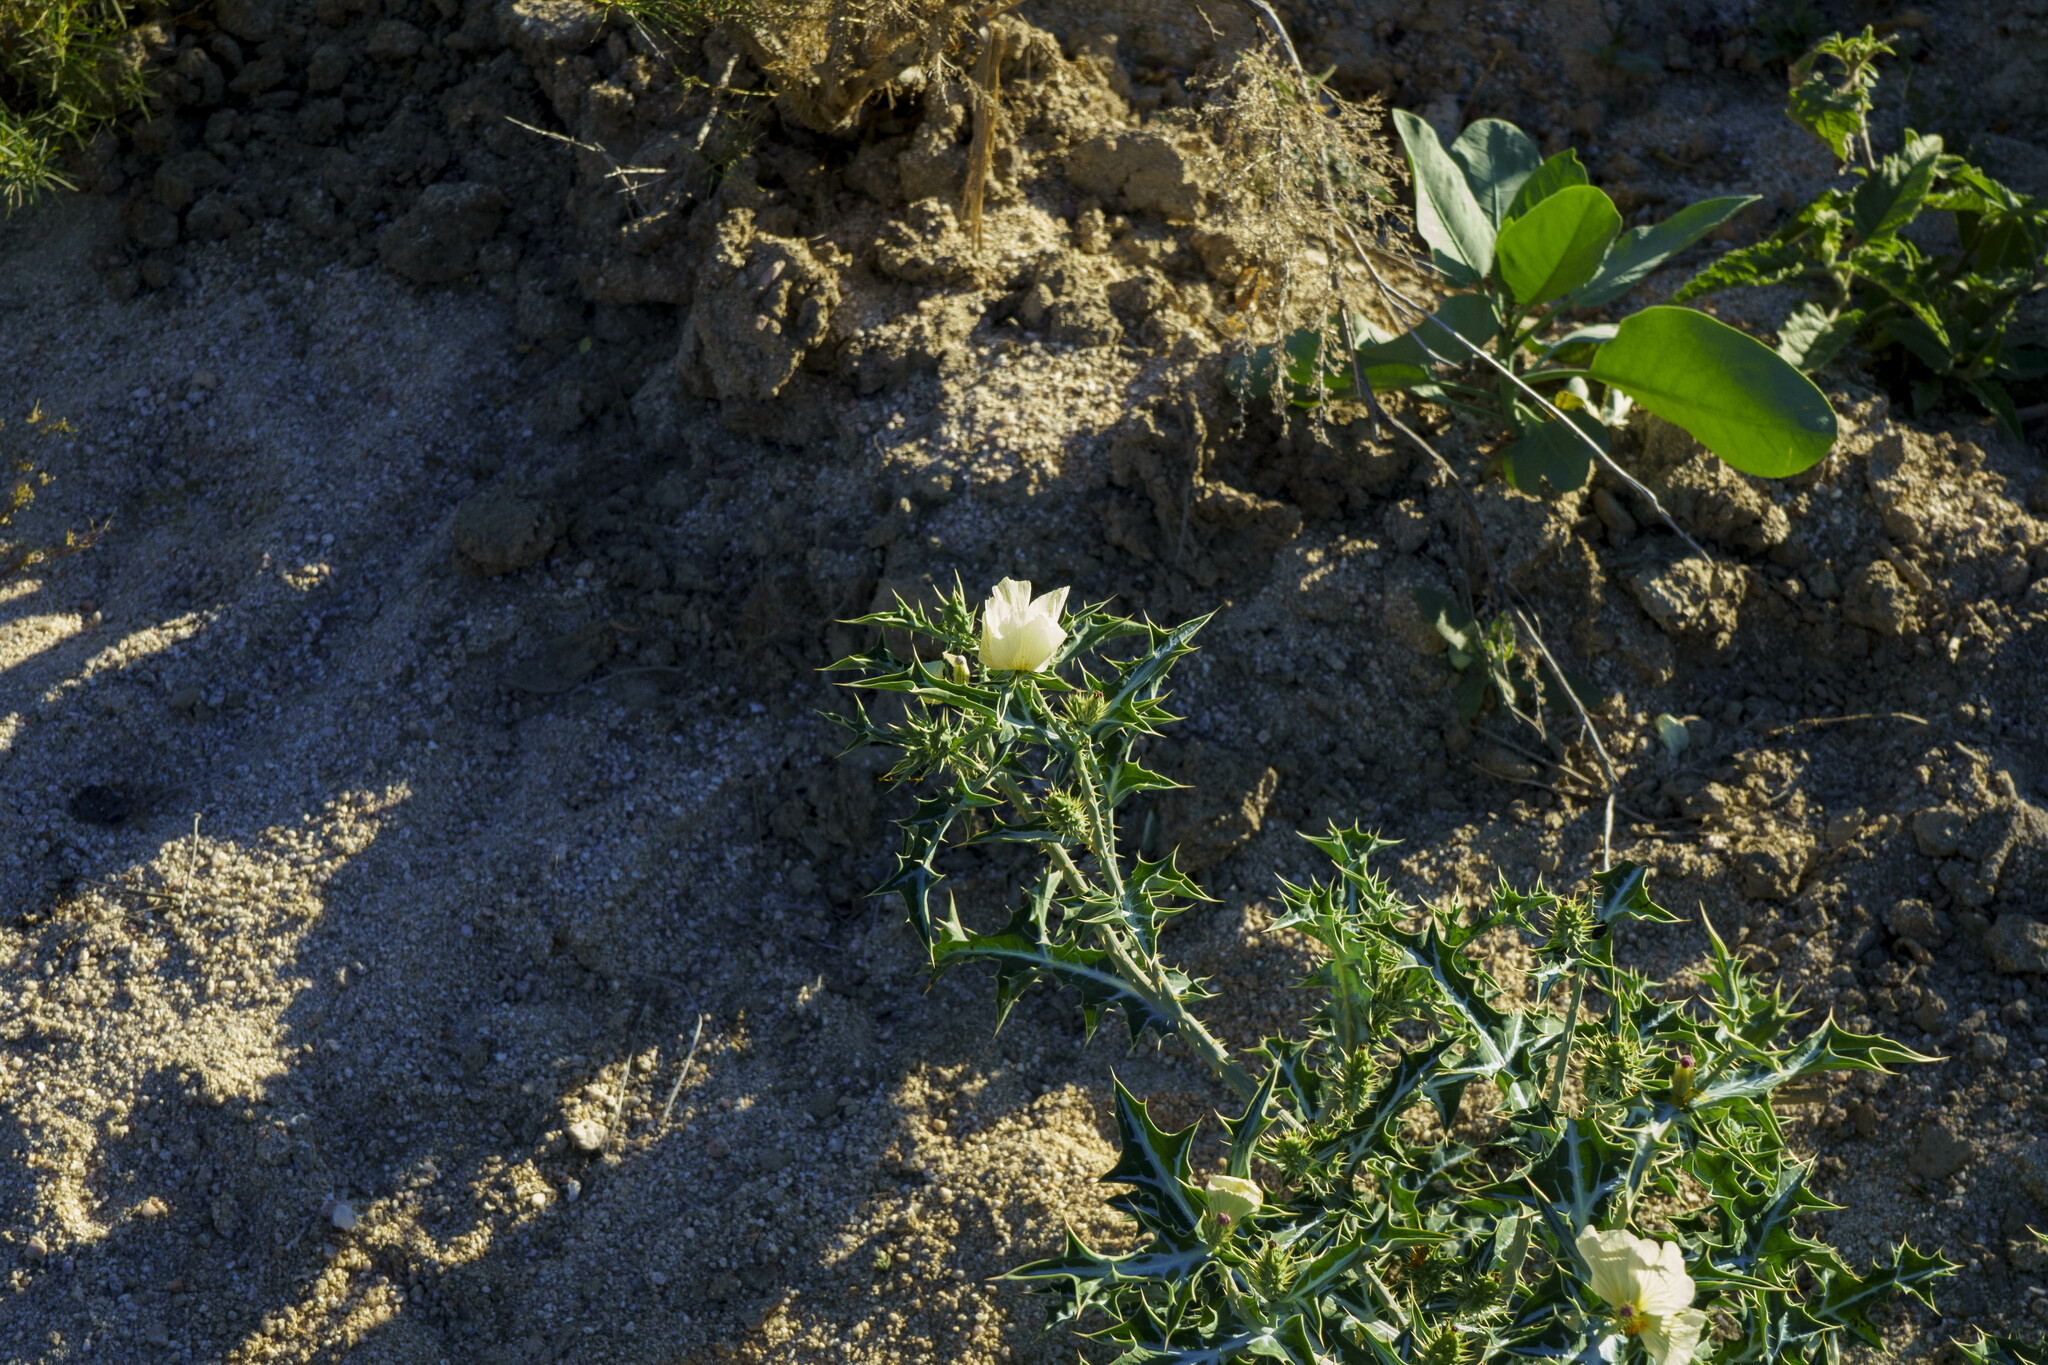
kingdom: Plantae
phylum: Tracheophyta
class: Magnoliopsida
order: Ranunculales
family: Papaveraceae
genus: Argemone
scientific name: Argemone ochroleuca
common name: White-flower mexican-poppy
